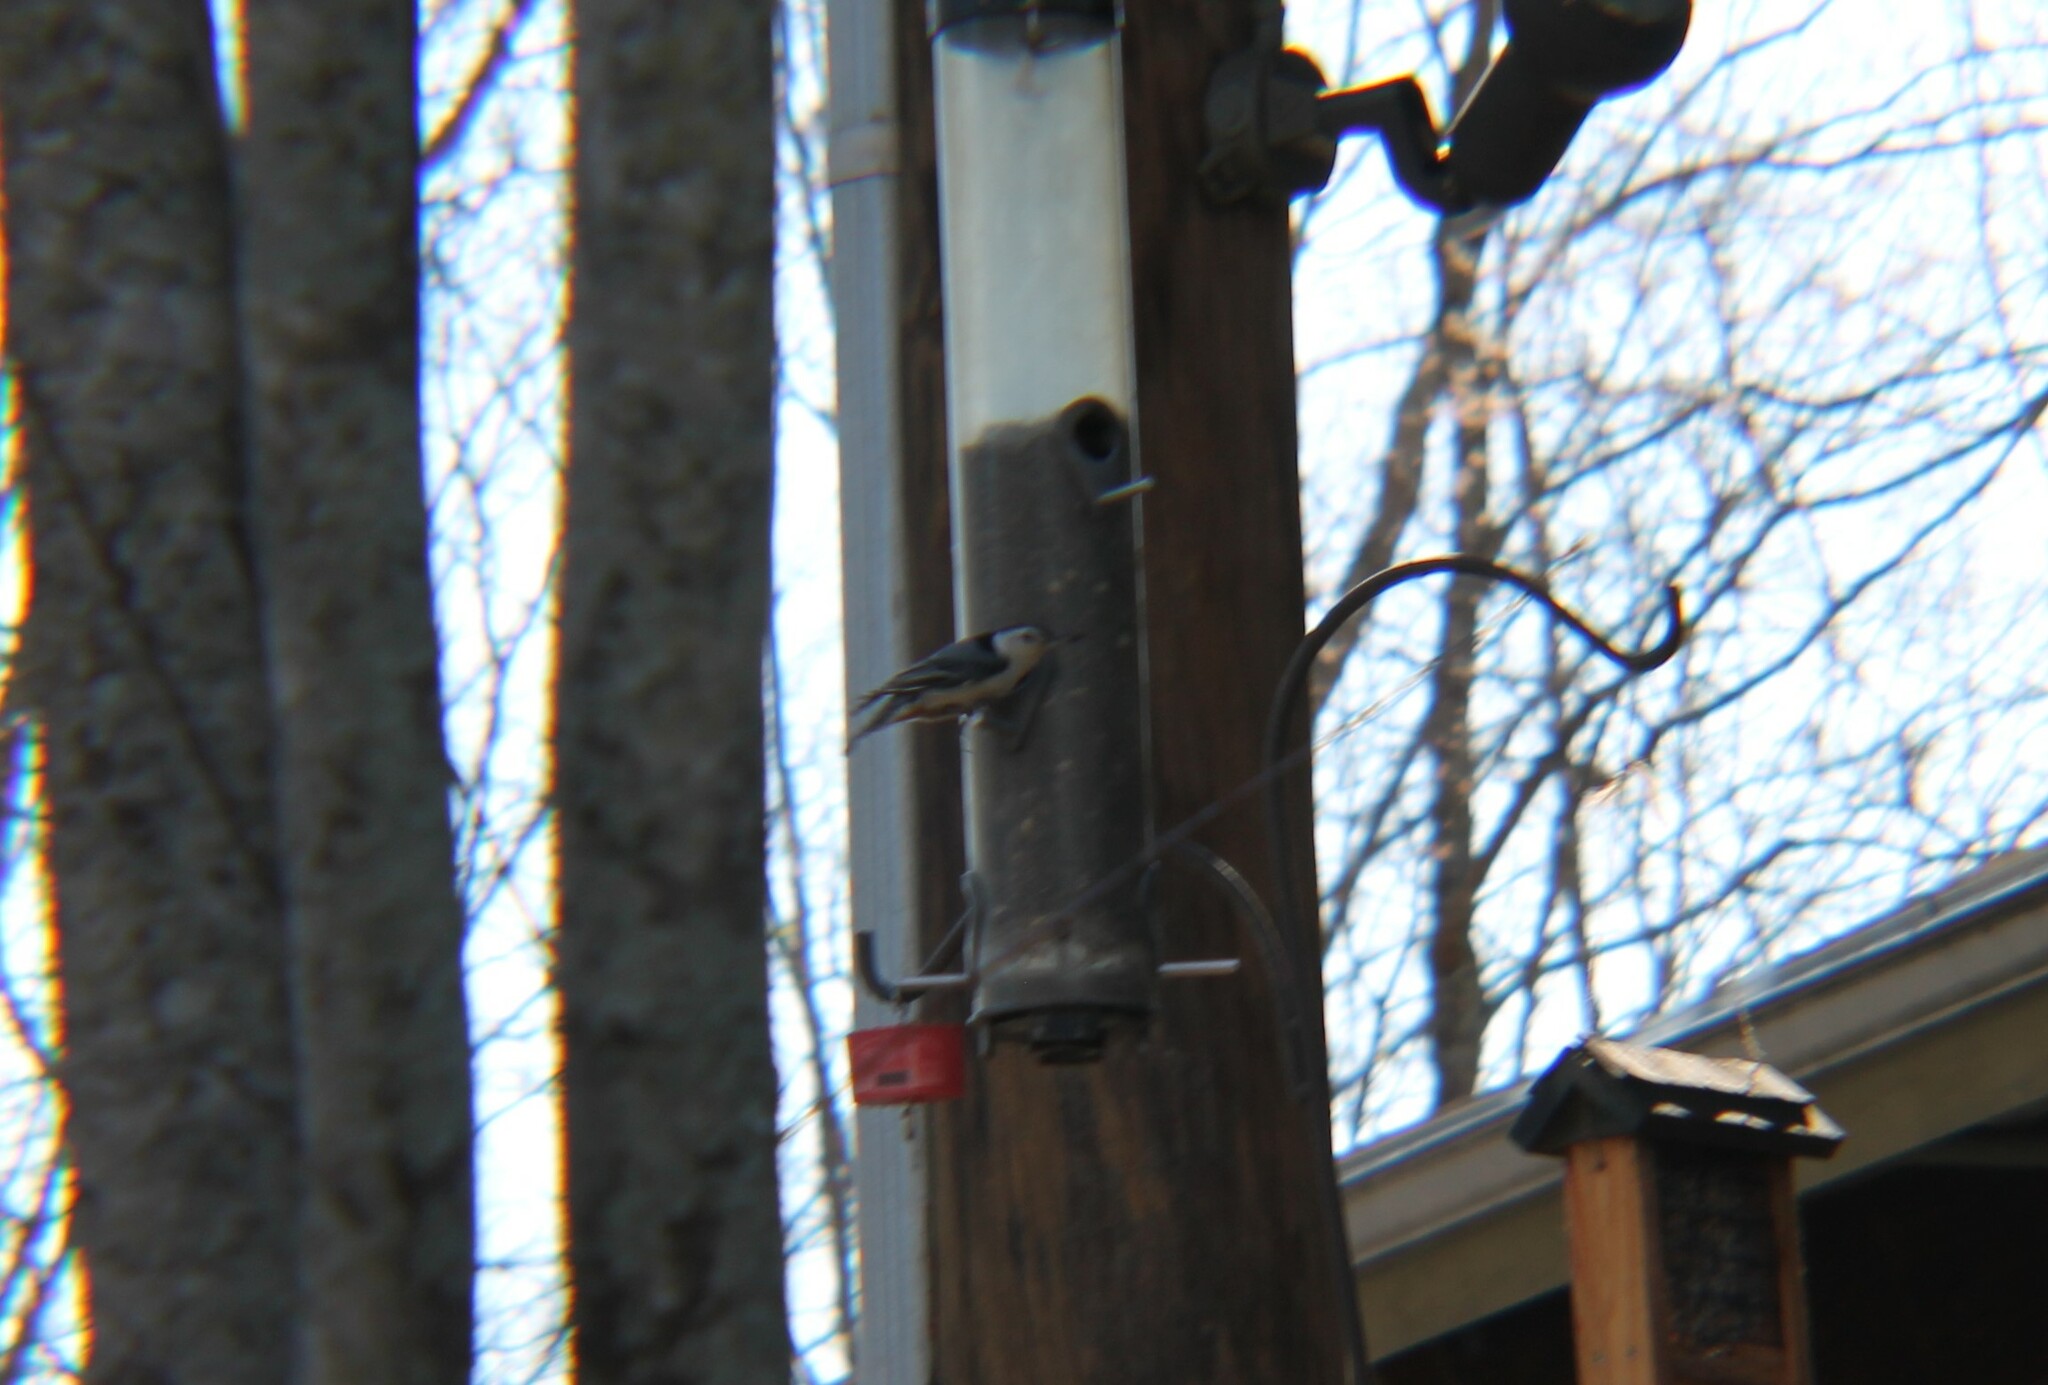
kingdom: Animalia
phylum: Chordata
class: Aves
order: Passeriformes
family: Sittidae
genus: Sitta
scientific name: Sitta carolinensis
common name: White-breasted nuthatch
